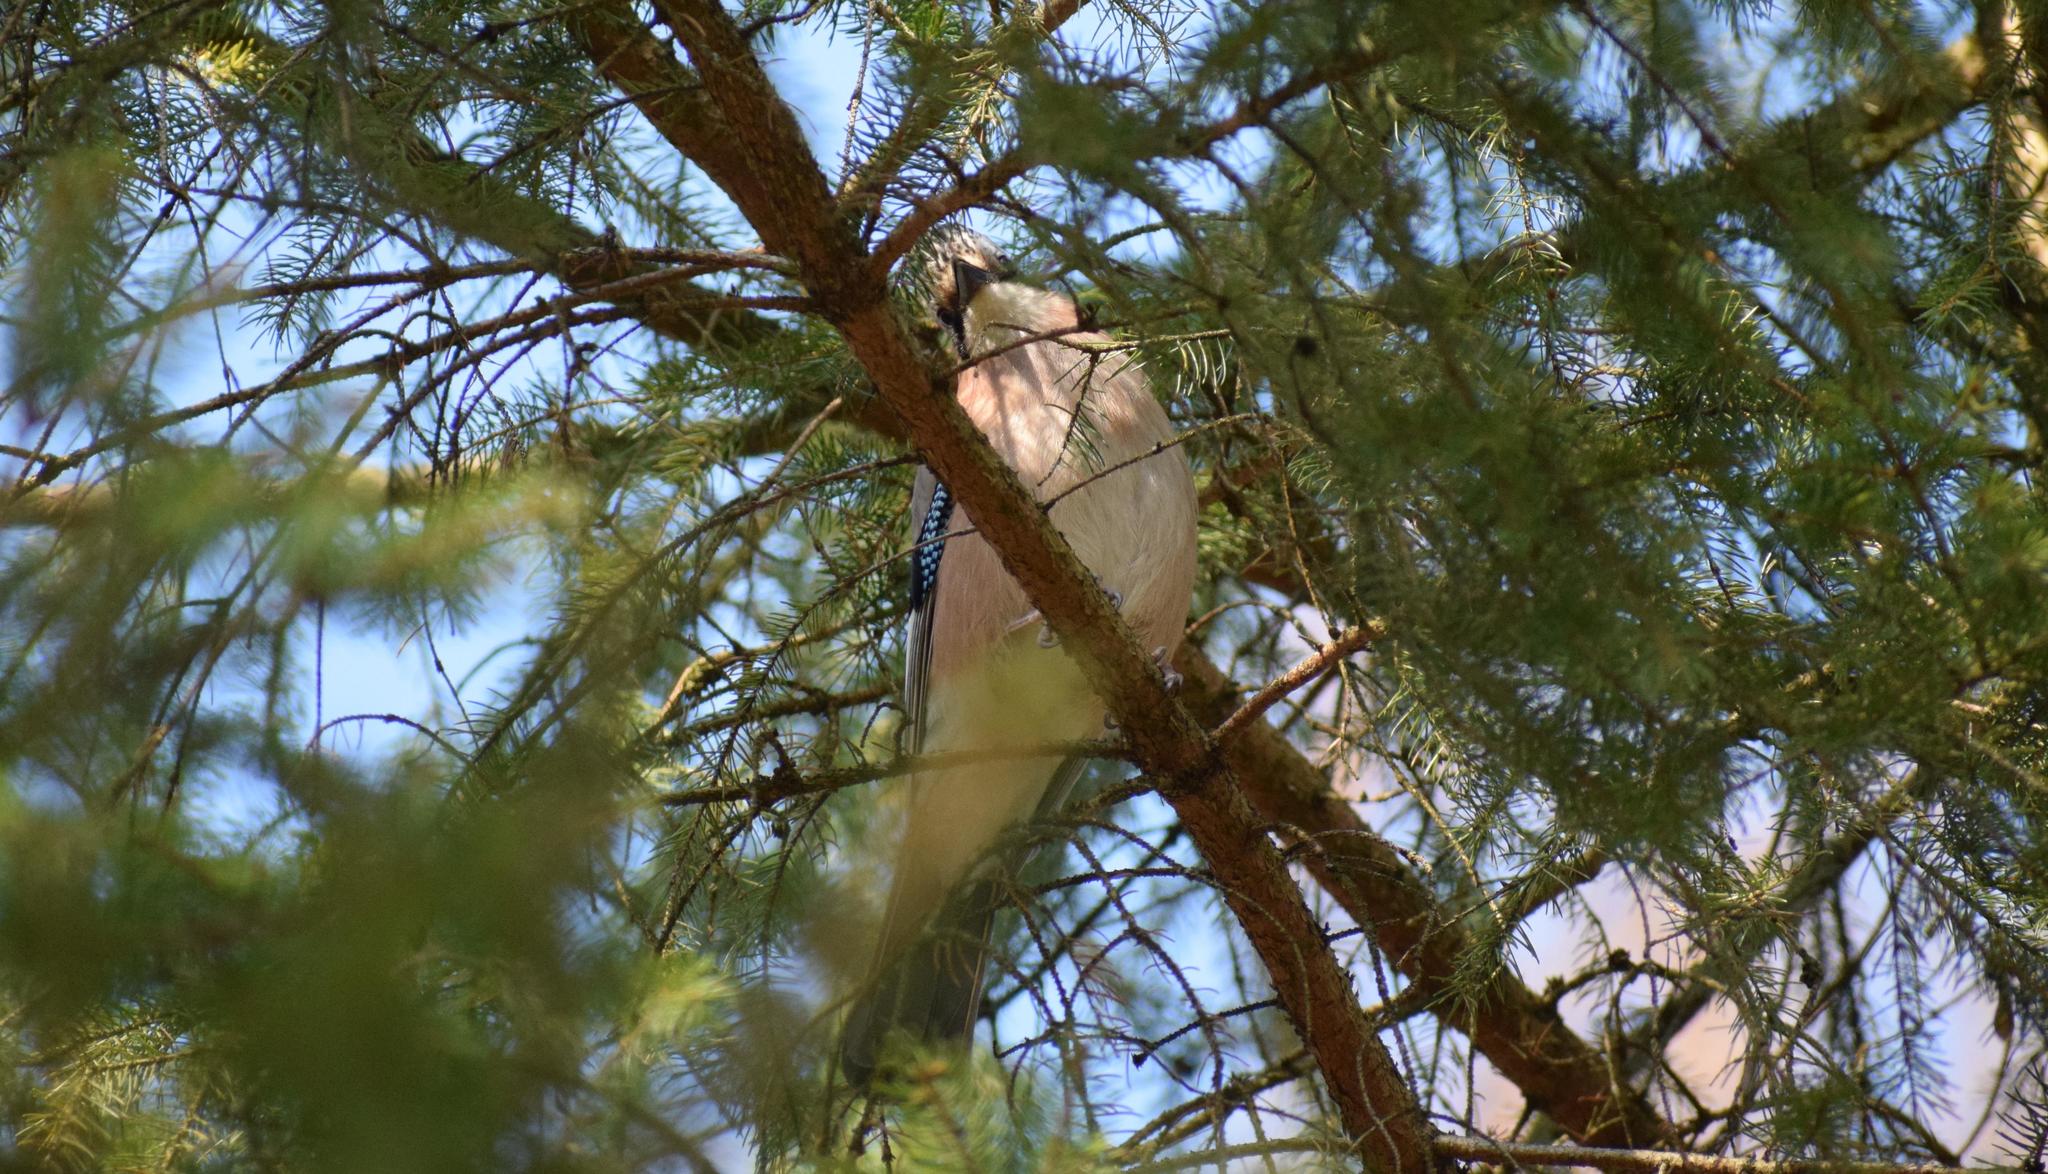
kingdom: Animalia
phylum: Chordata
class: Aves
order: Passeriformes
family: Corvidae
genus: Garrulus
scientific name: Garrulus glandarius
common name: Eurasian jay
